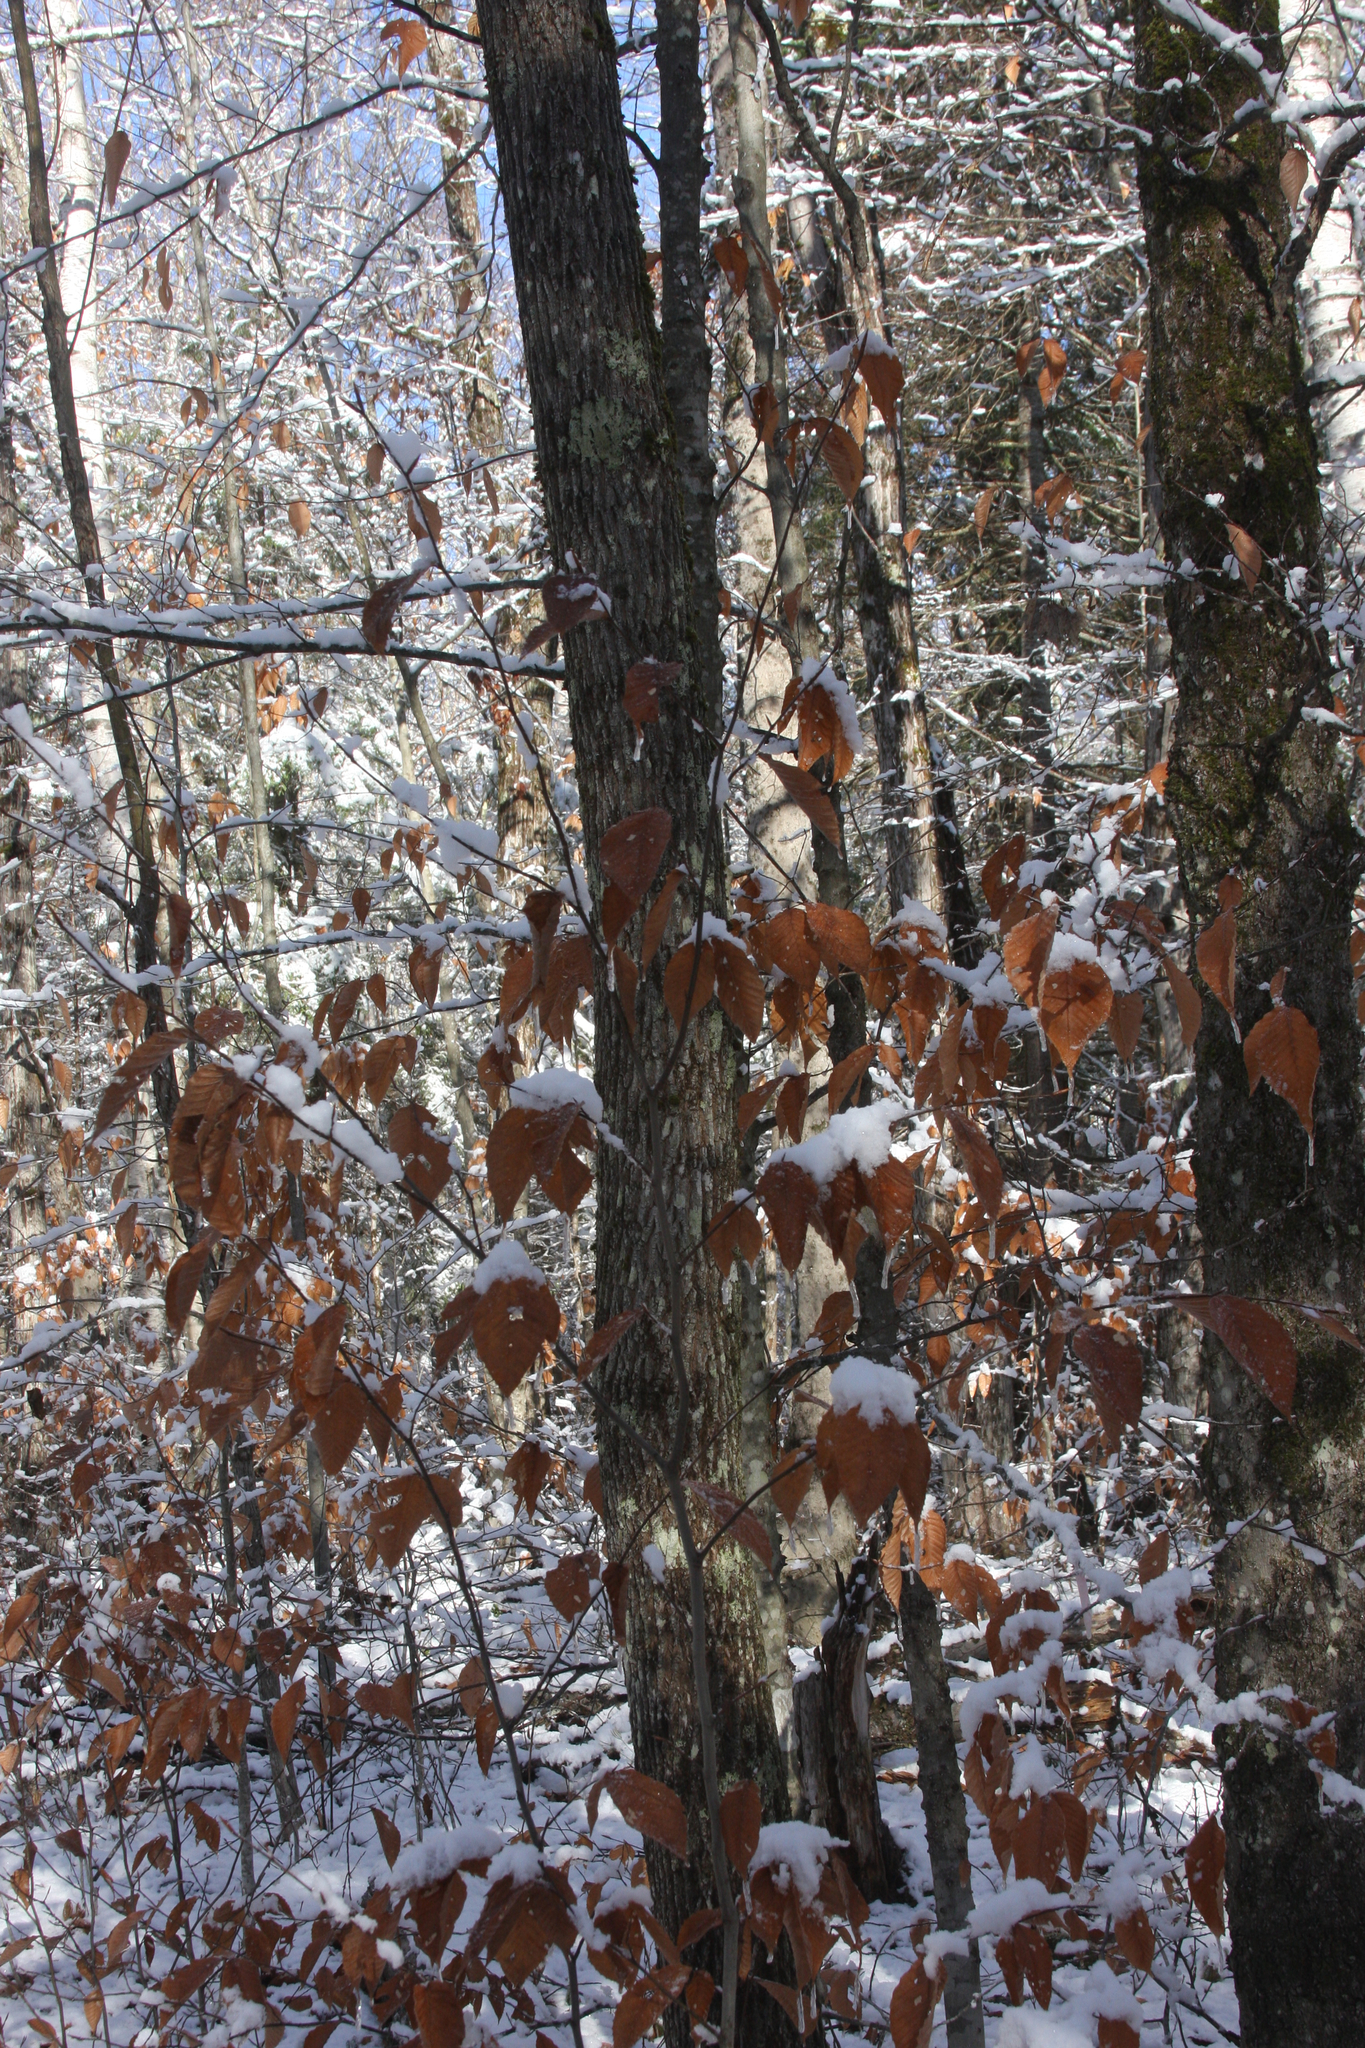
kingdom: Plantae
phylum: Tracheophyta
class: Magnoliopsida
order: Fagales
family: Fagaceae
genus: Fagus
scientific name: Fagus grandifolia
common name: American beech
